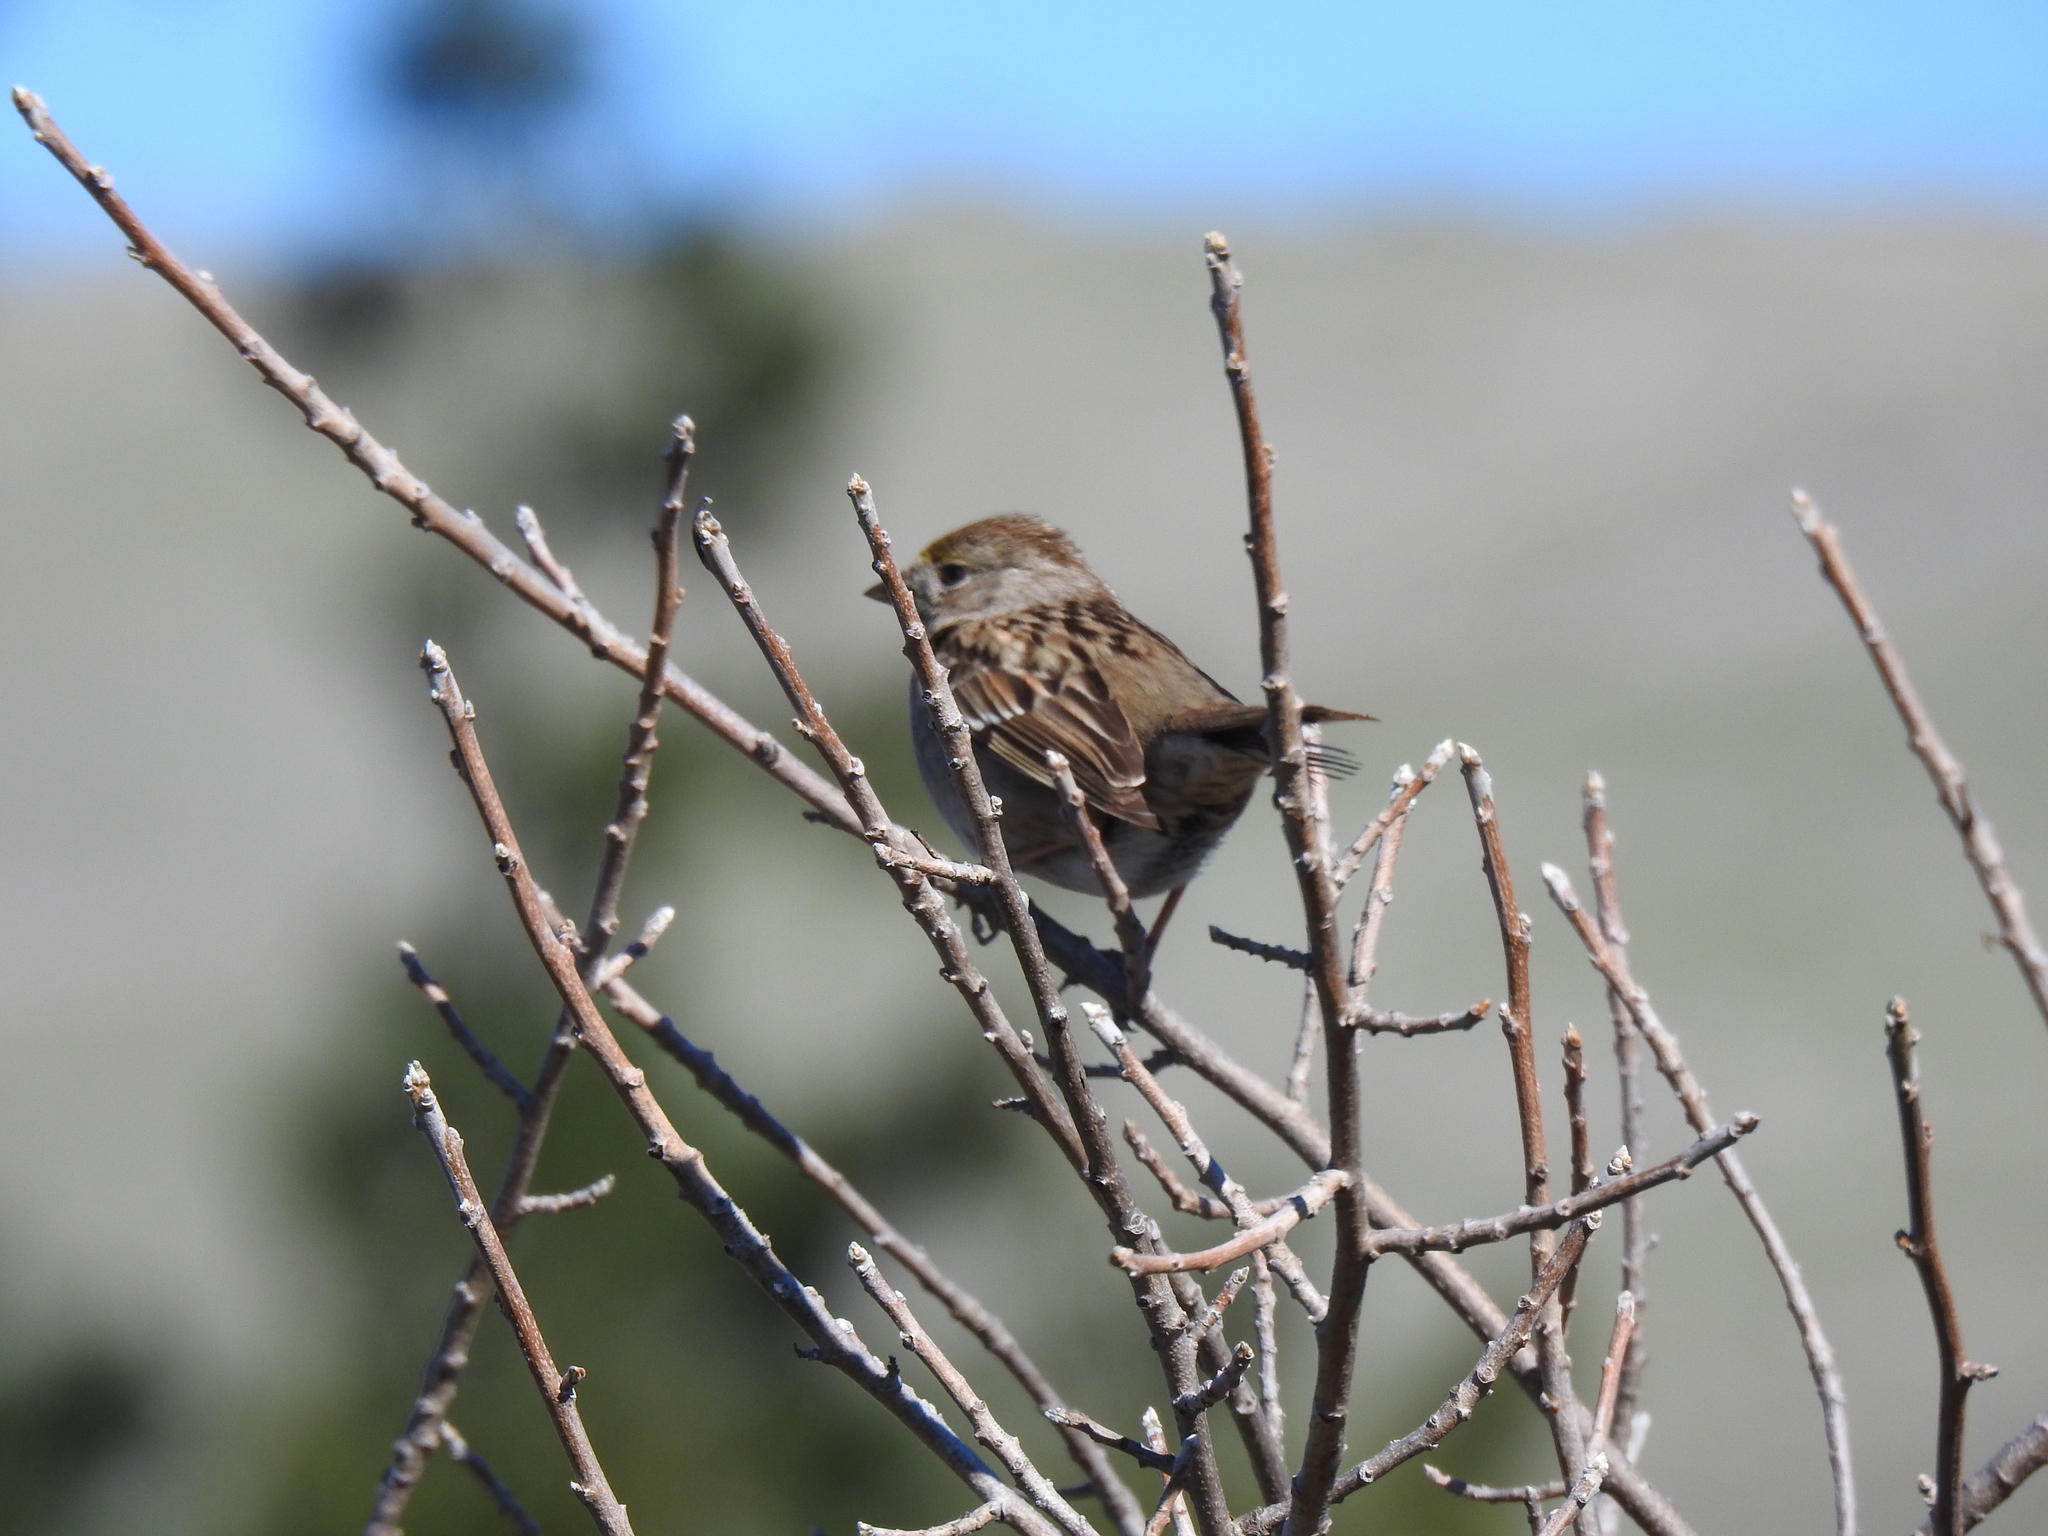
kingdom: Animalia
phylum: Chordata
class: Aves
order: Passeriformes
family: Passerellidae
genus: Zonotrichia
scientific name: Zonotrichia atricapilla
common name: Golden-crowned sparrow
